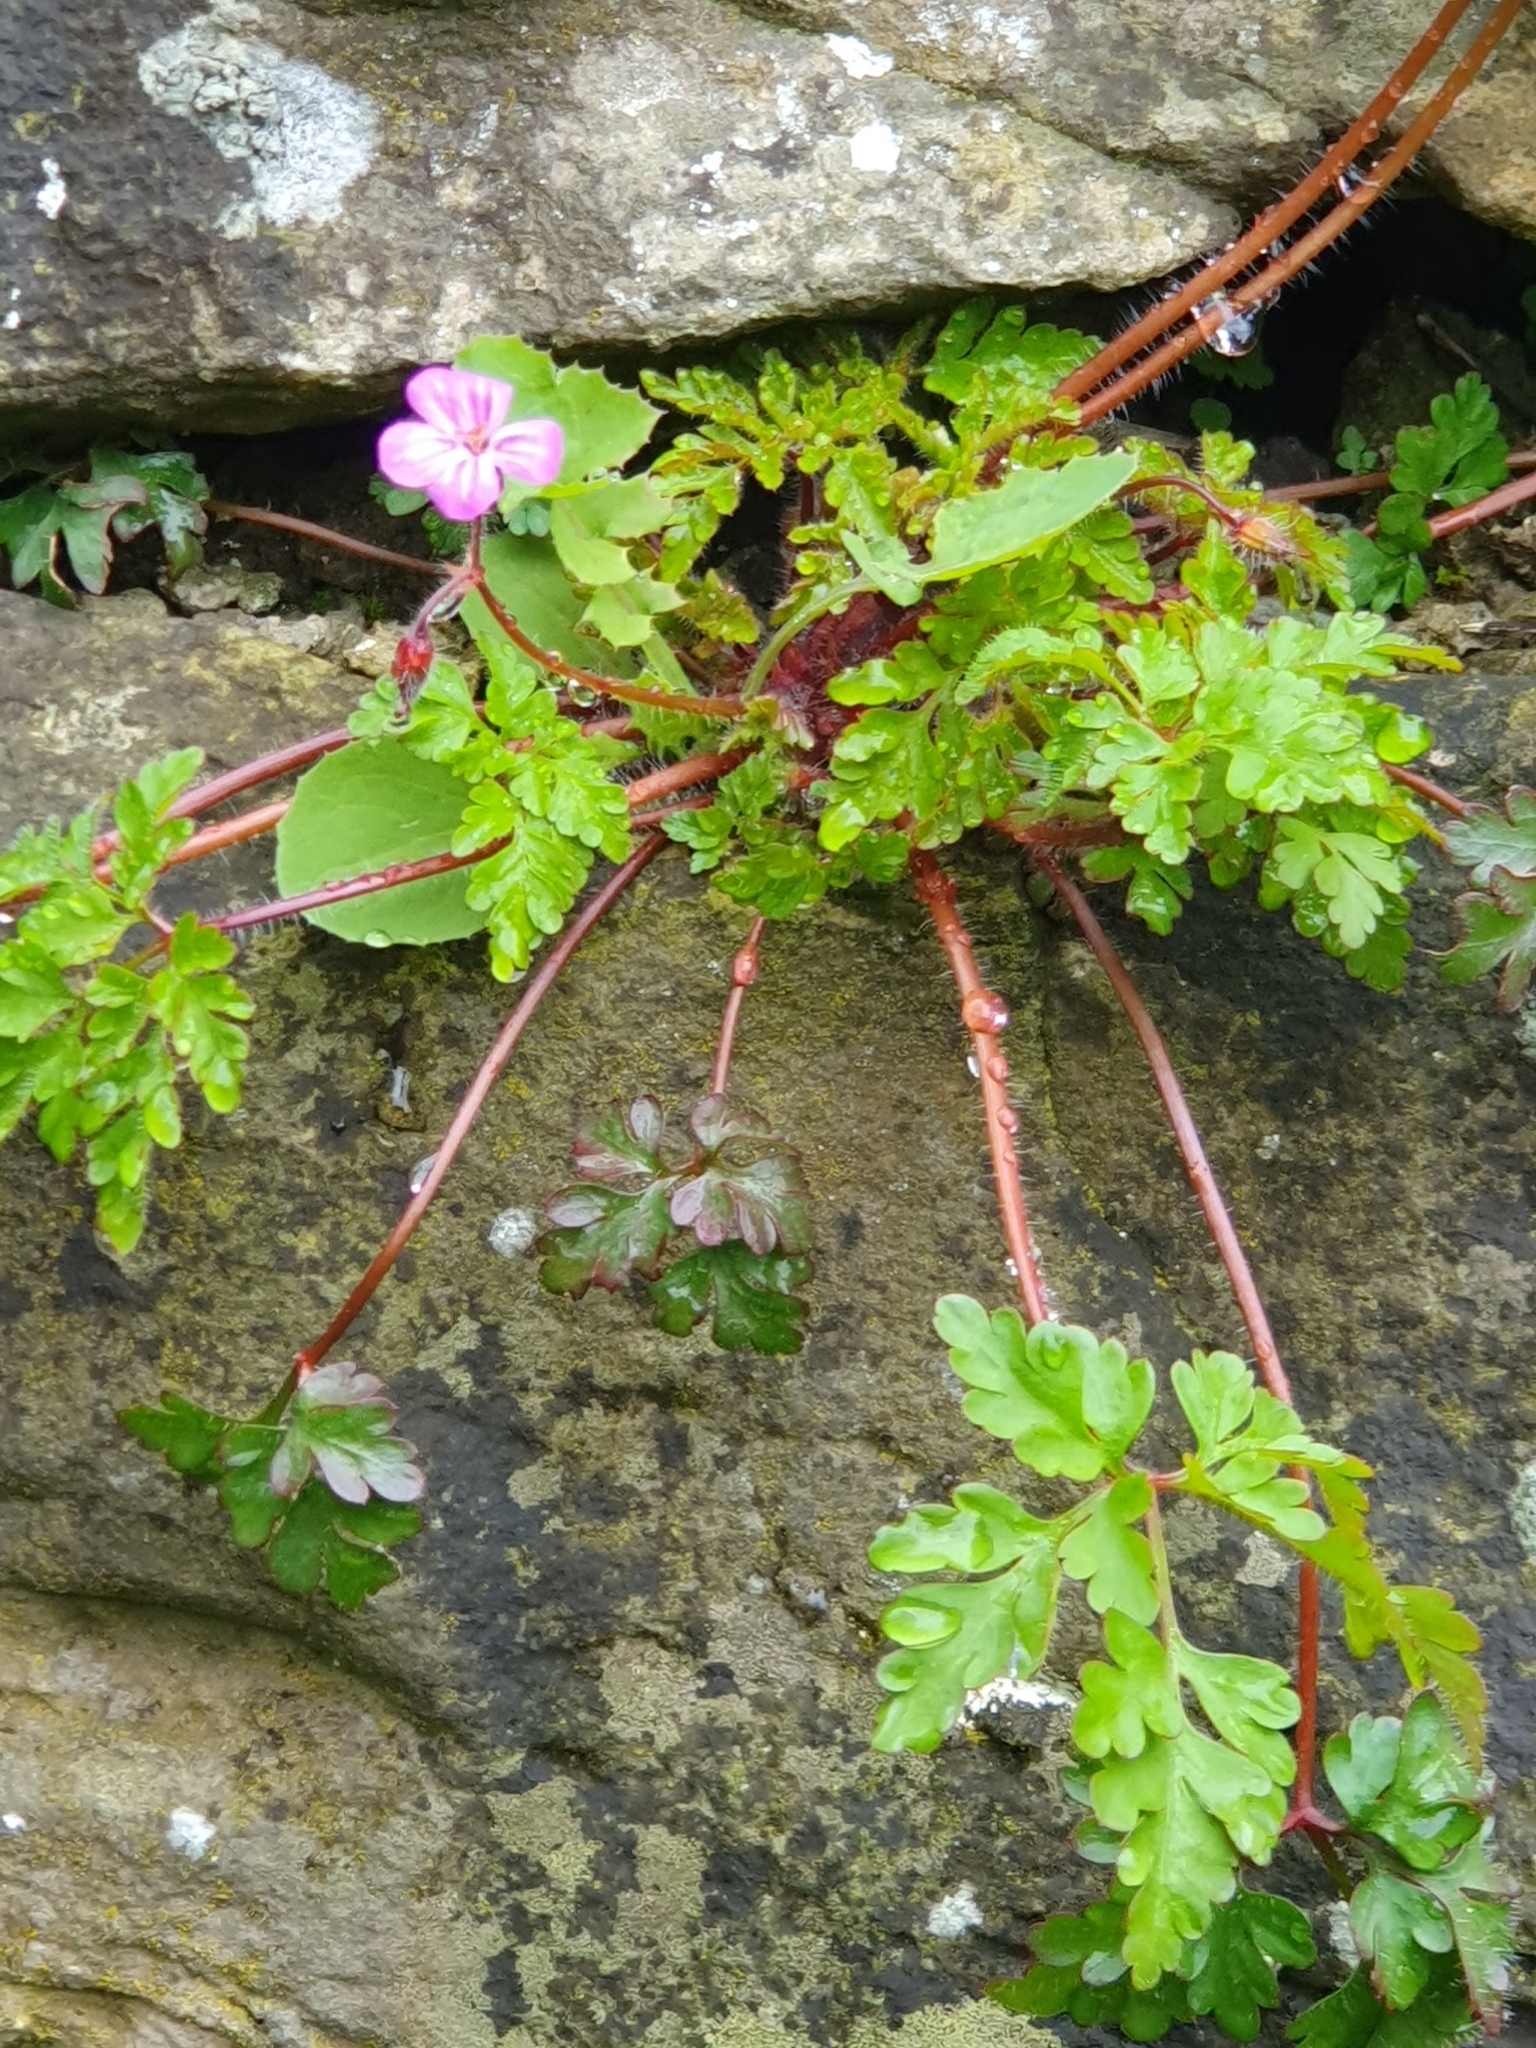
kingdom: Plantae
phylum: Tracheophyta
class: Magnoliopsida
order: Geraniales
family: Geraniaceae
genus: Geranium
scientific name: Geranium robertianum
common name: Herb-robert
